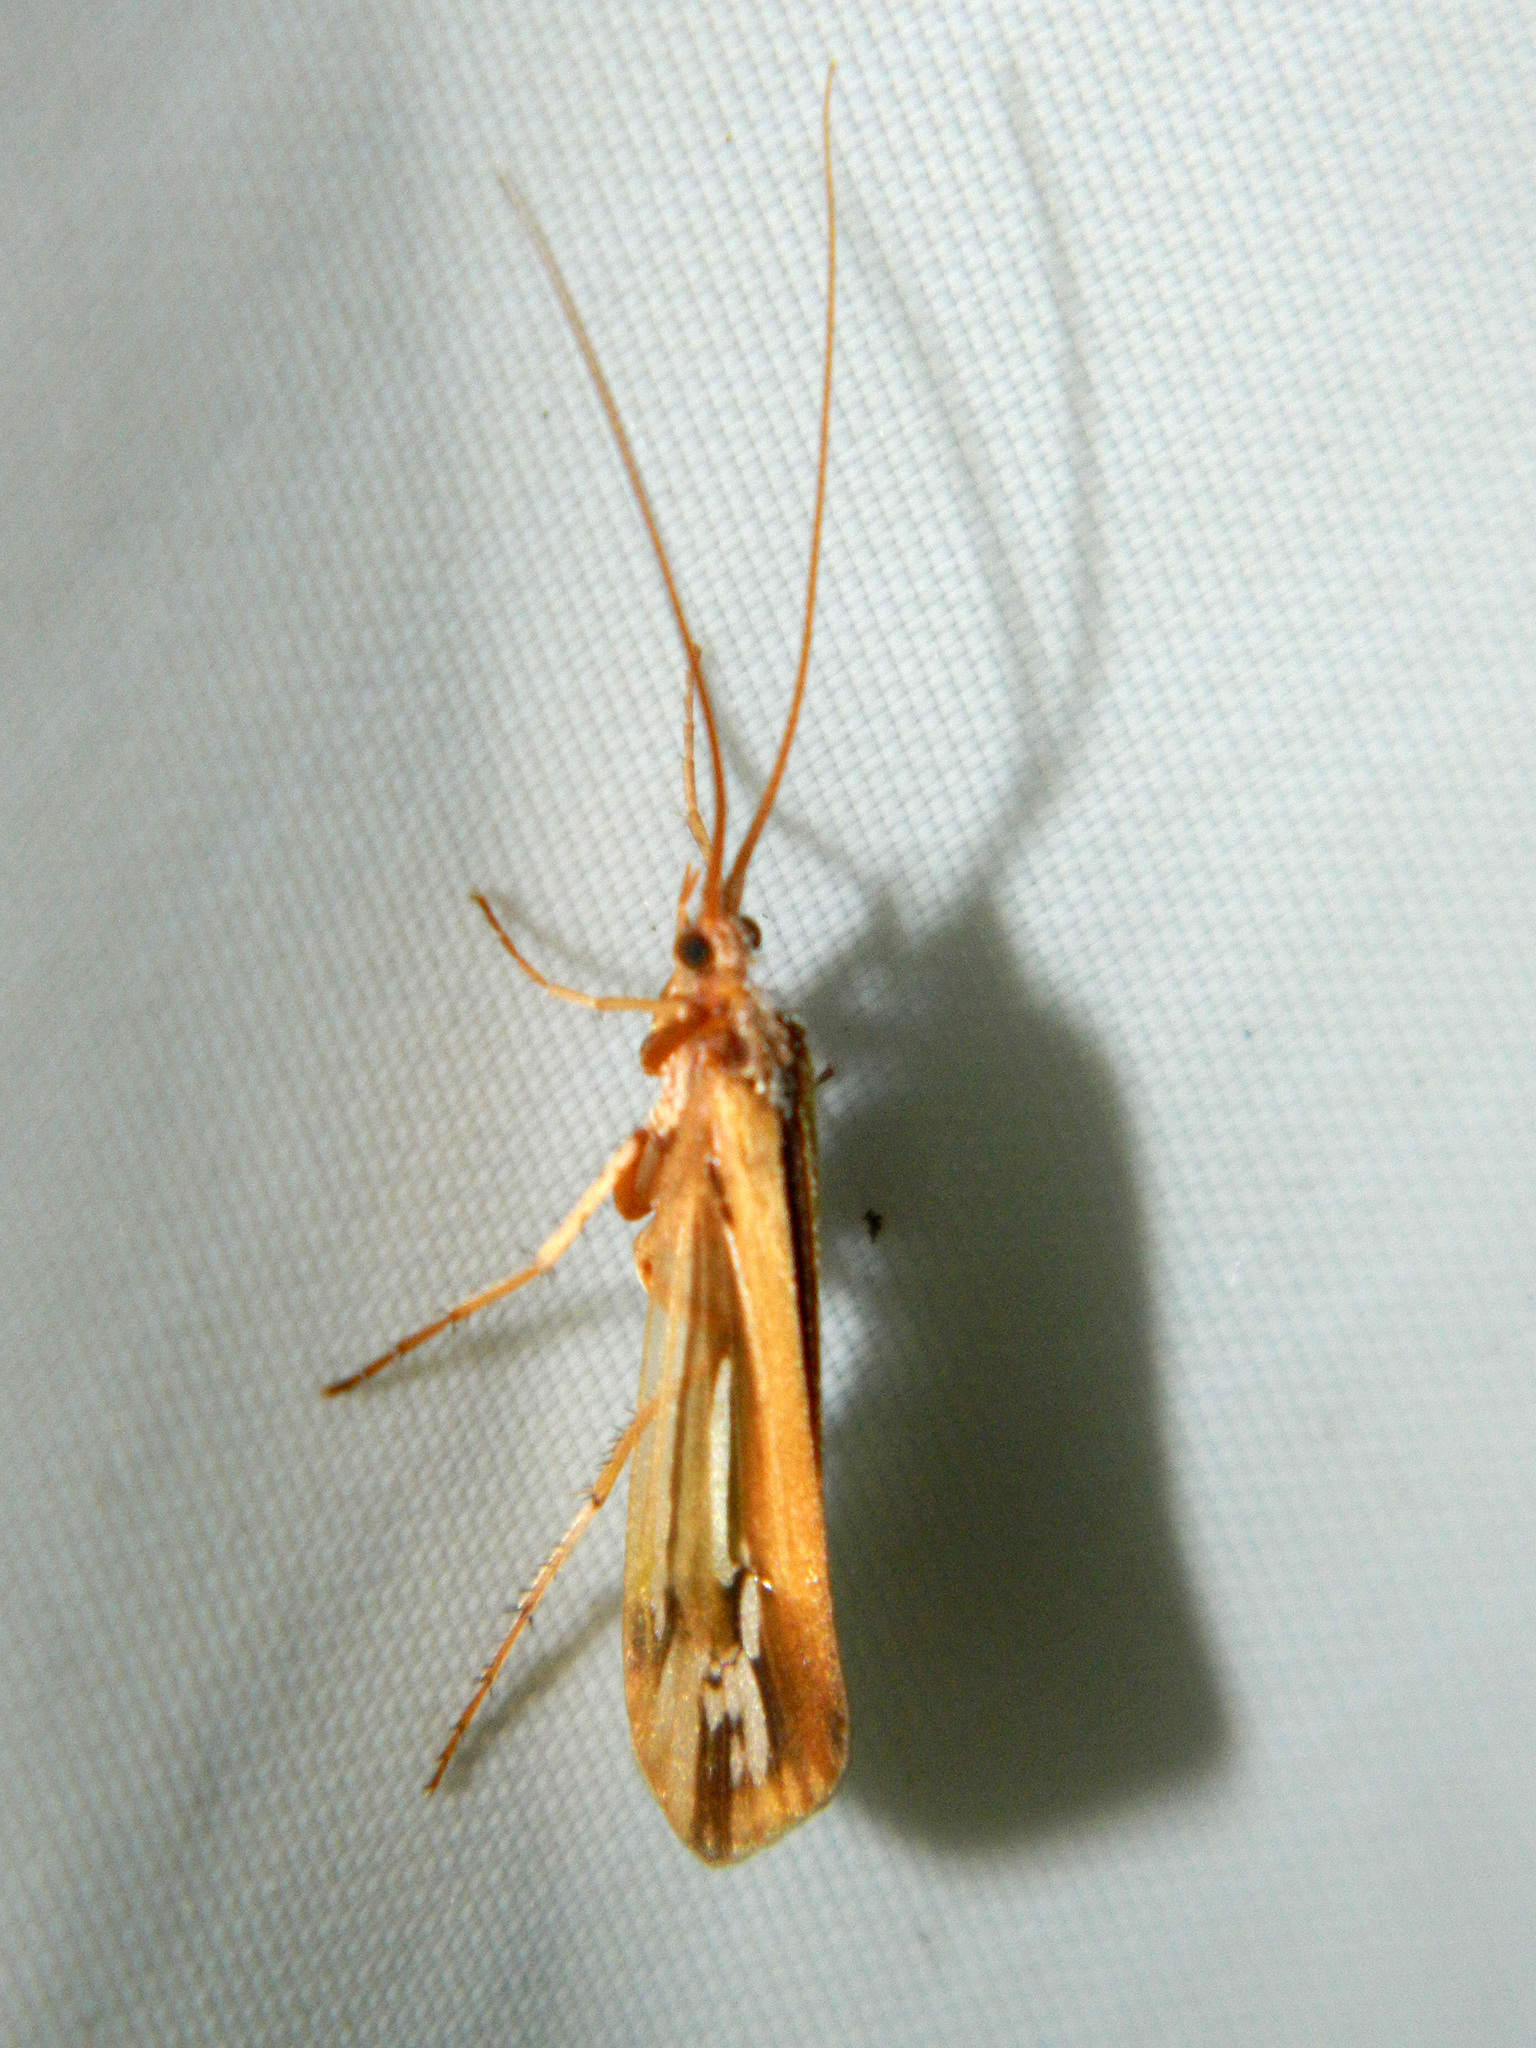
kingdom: Animalia
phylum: Arthropoda
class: Insecta
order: Trichoptera
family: Limnephilidae
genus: Limnephilus
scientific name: Limnephilus ornatus
